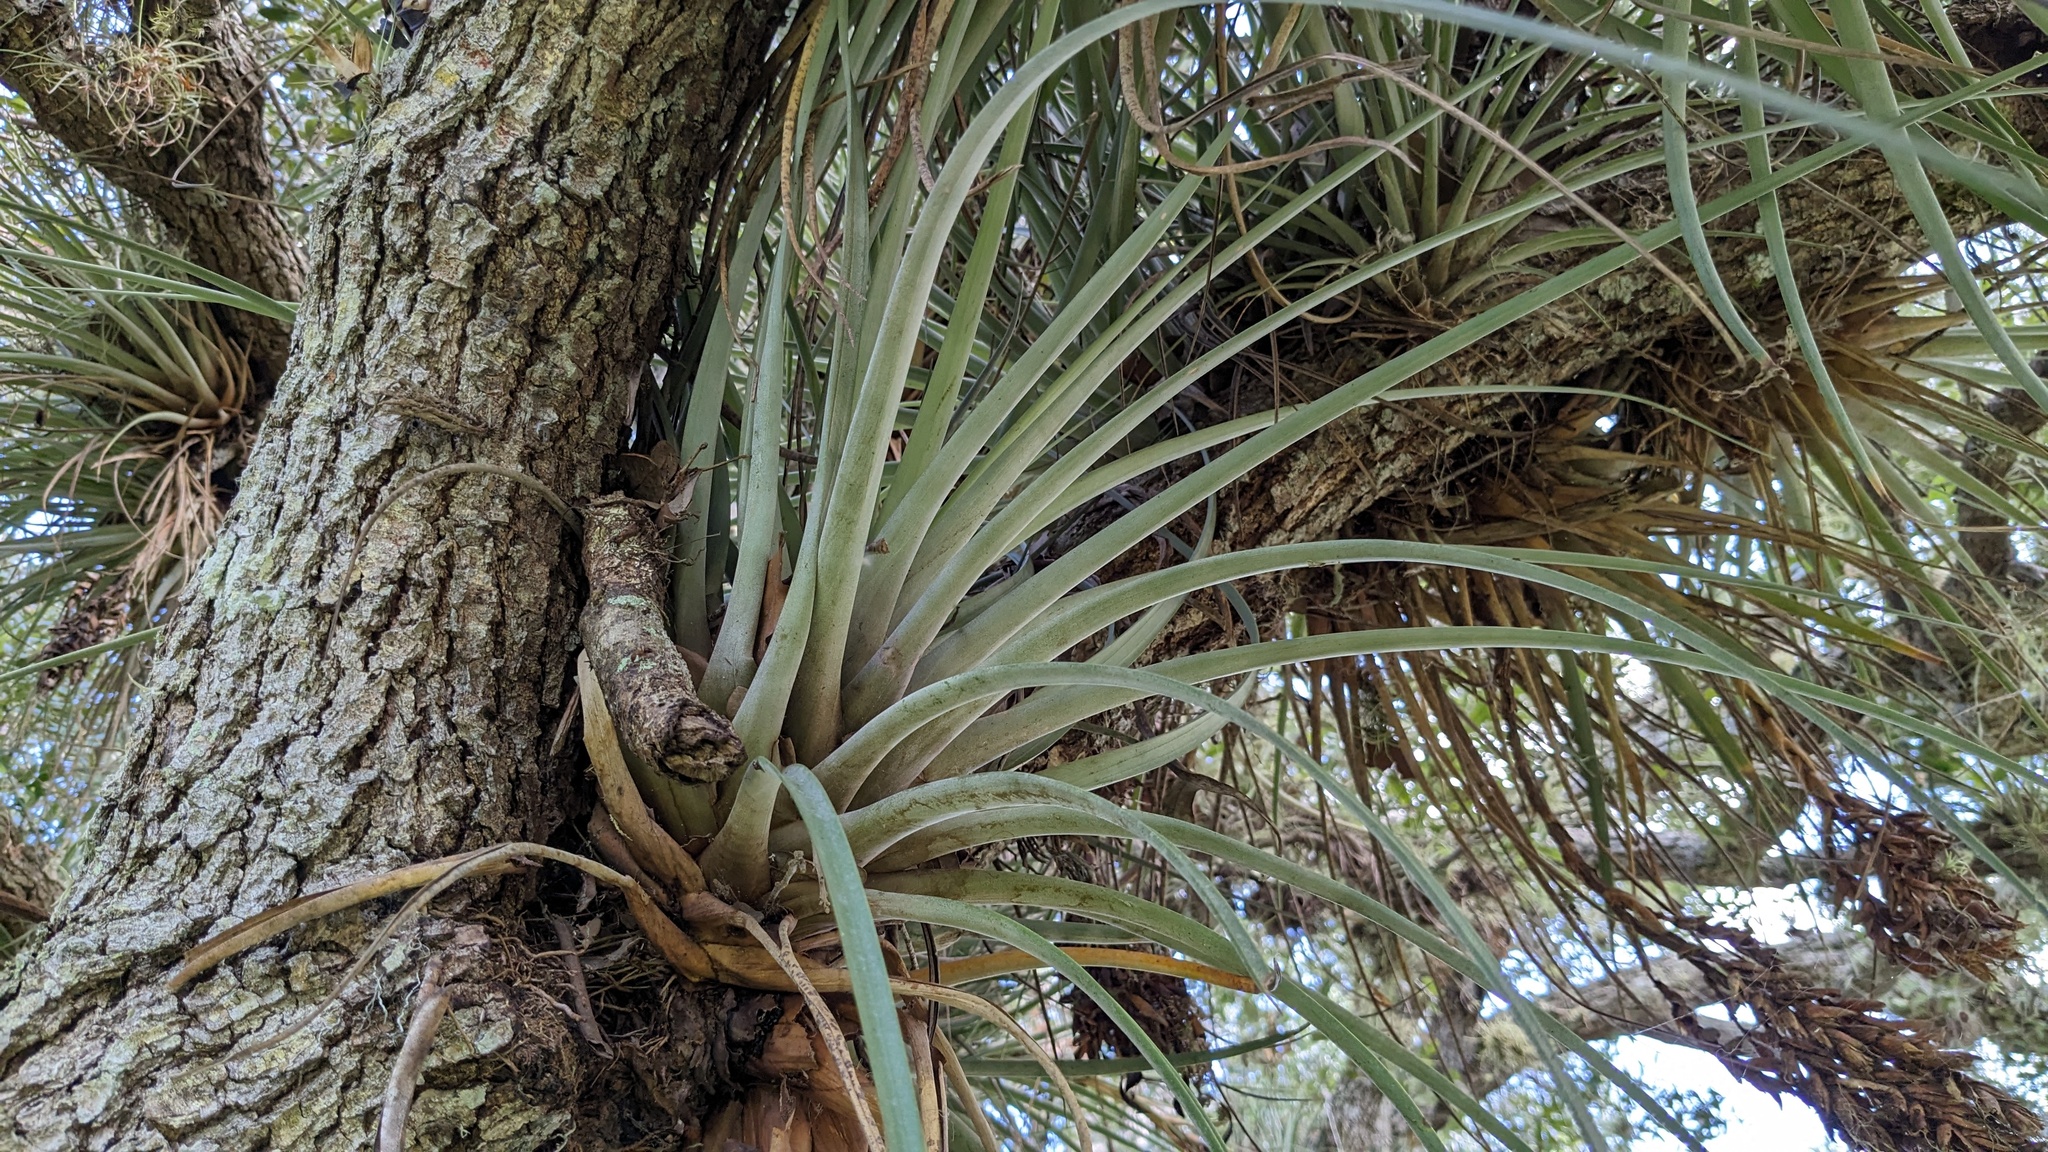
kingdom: Plantae
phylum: Tracheophyta
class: Liliopsida
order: Poales
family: Bromeliaceae
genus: Tillandsia
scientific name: Tillandsia fasciculata
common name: Giant airplant
